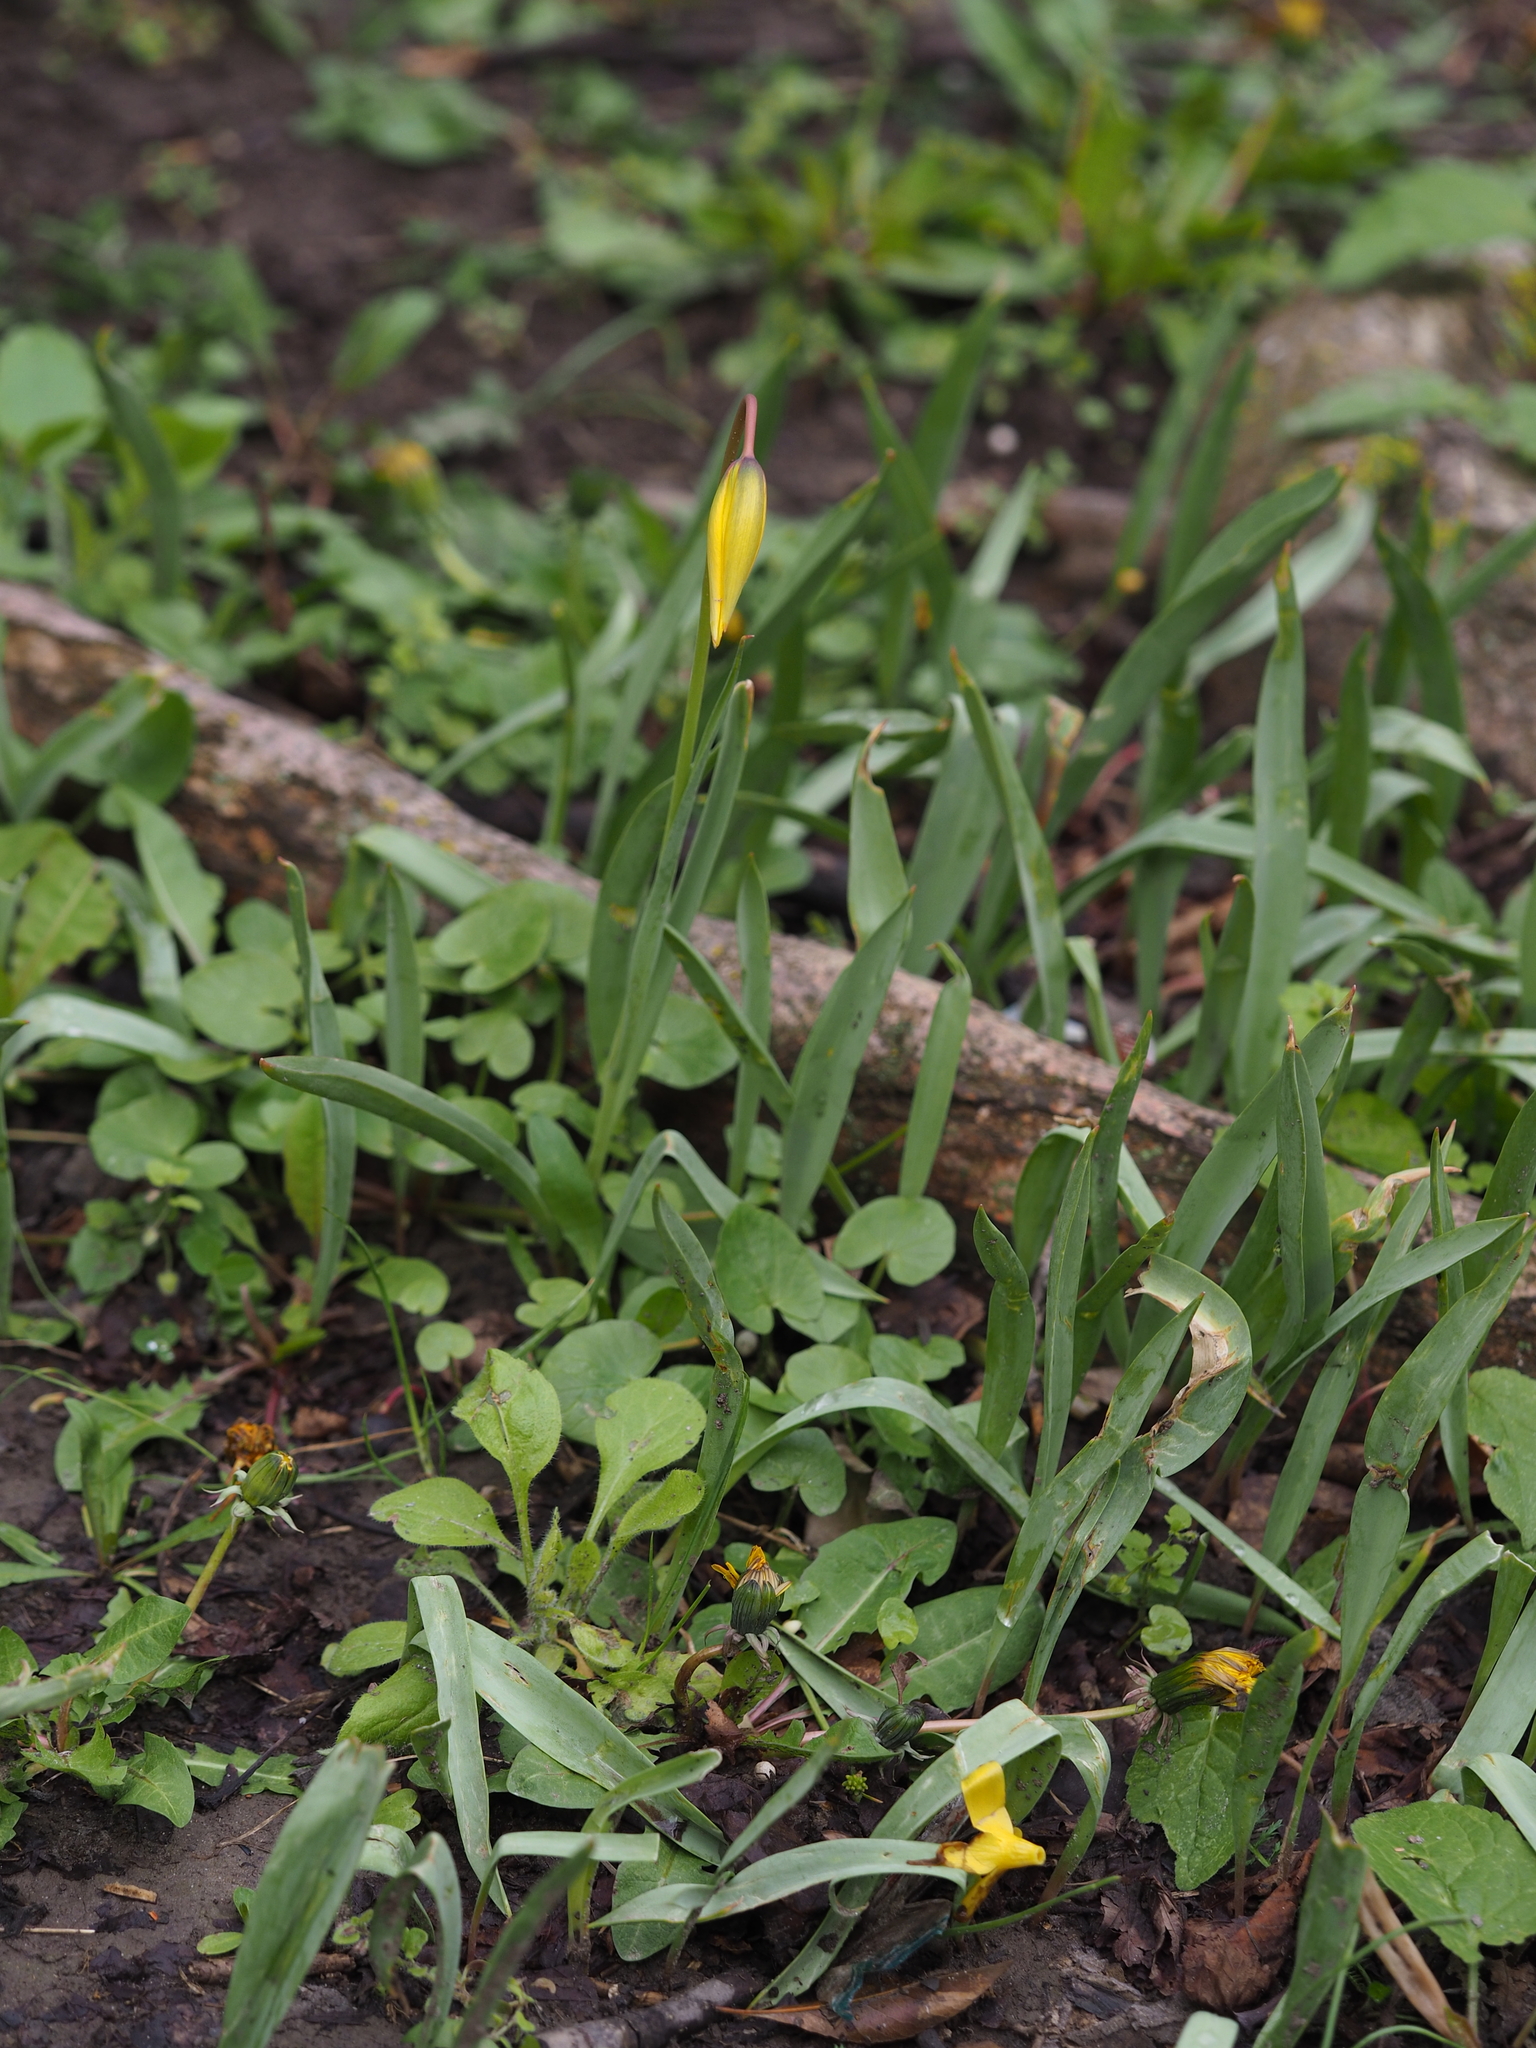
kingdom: Plantae
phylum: Tracheophyta
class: Liliopsida
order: Liliales
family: Liliaceae
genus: Tulipa
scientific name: Tulipa sylvestris
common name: Wild tulip
